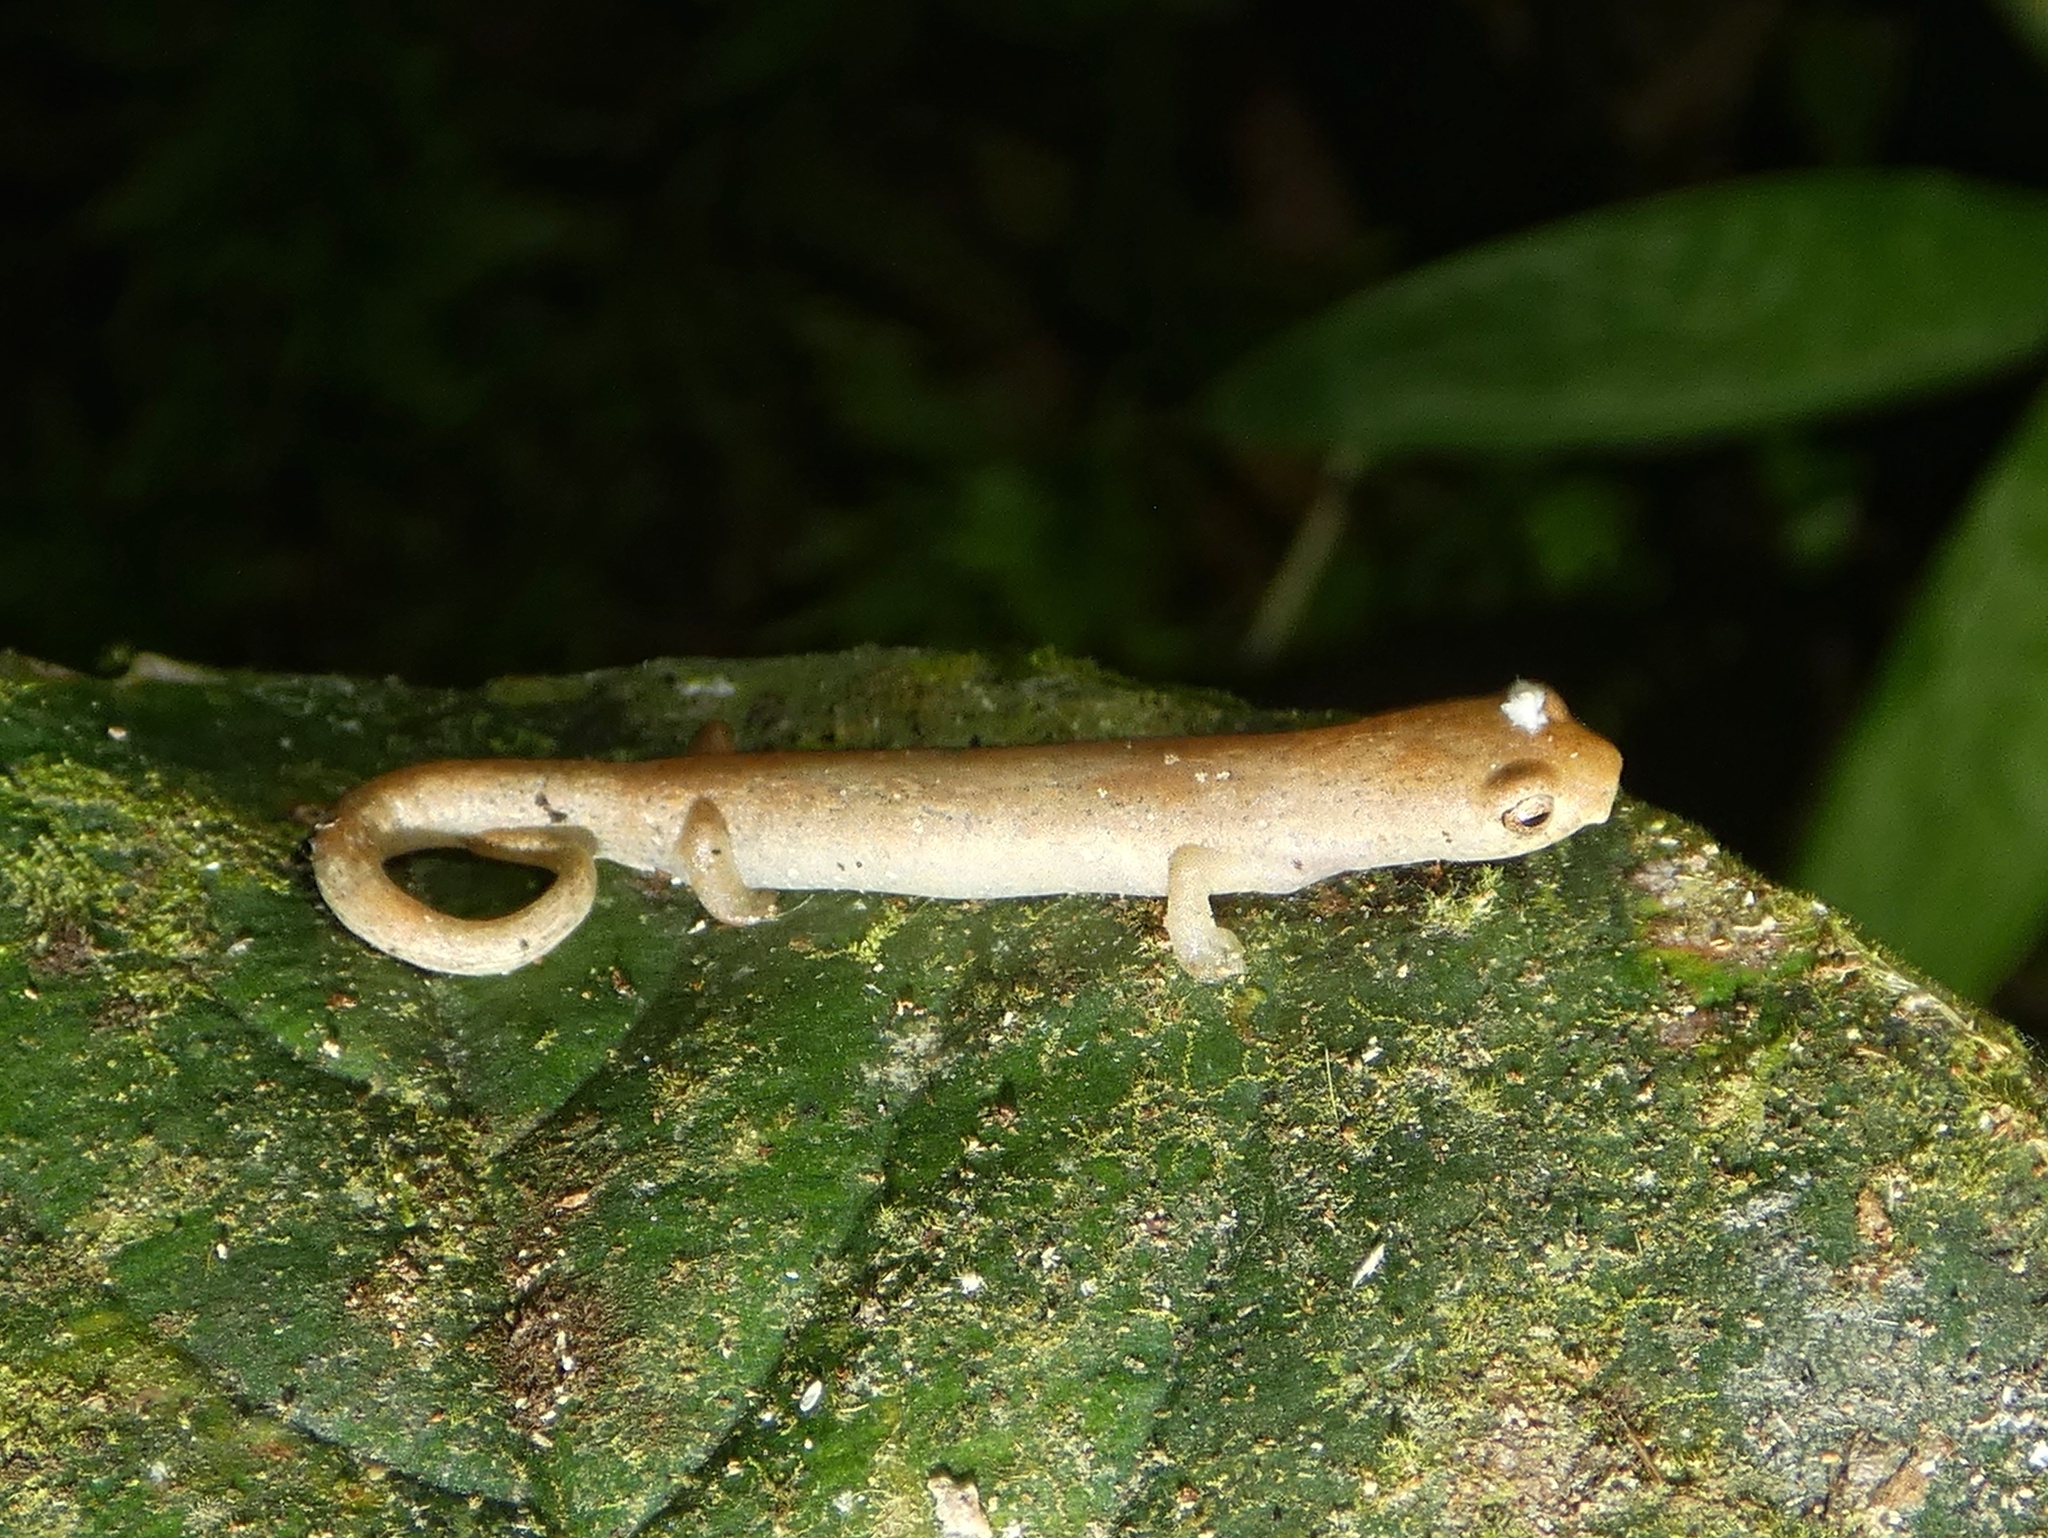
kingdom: Animalia
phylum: Chordata
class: Amphibia
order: Caudata
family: Plethodontidae
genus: Bolitoglossa
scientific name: Bolitoglossa cuna
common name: Camp sasardi salamander
